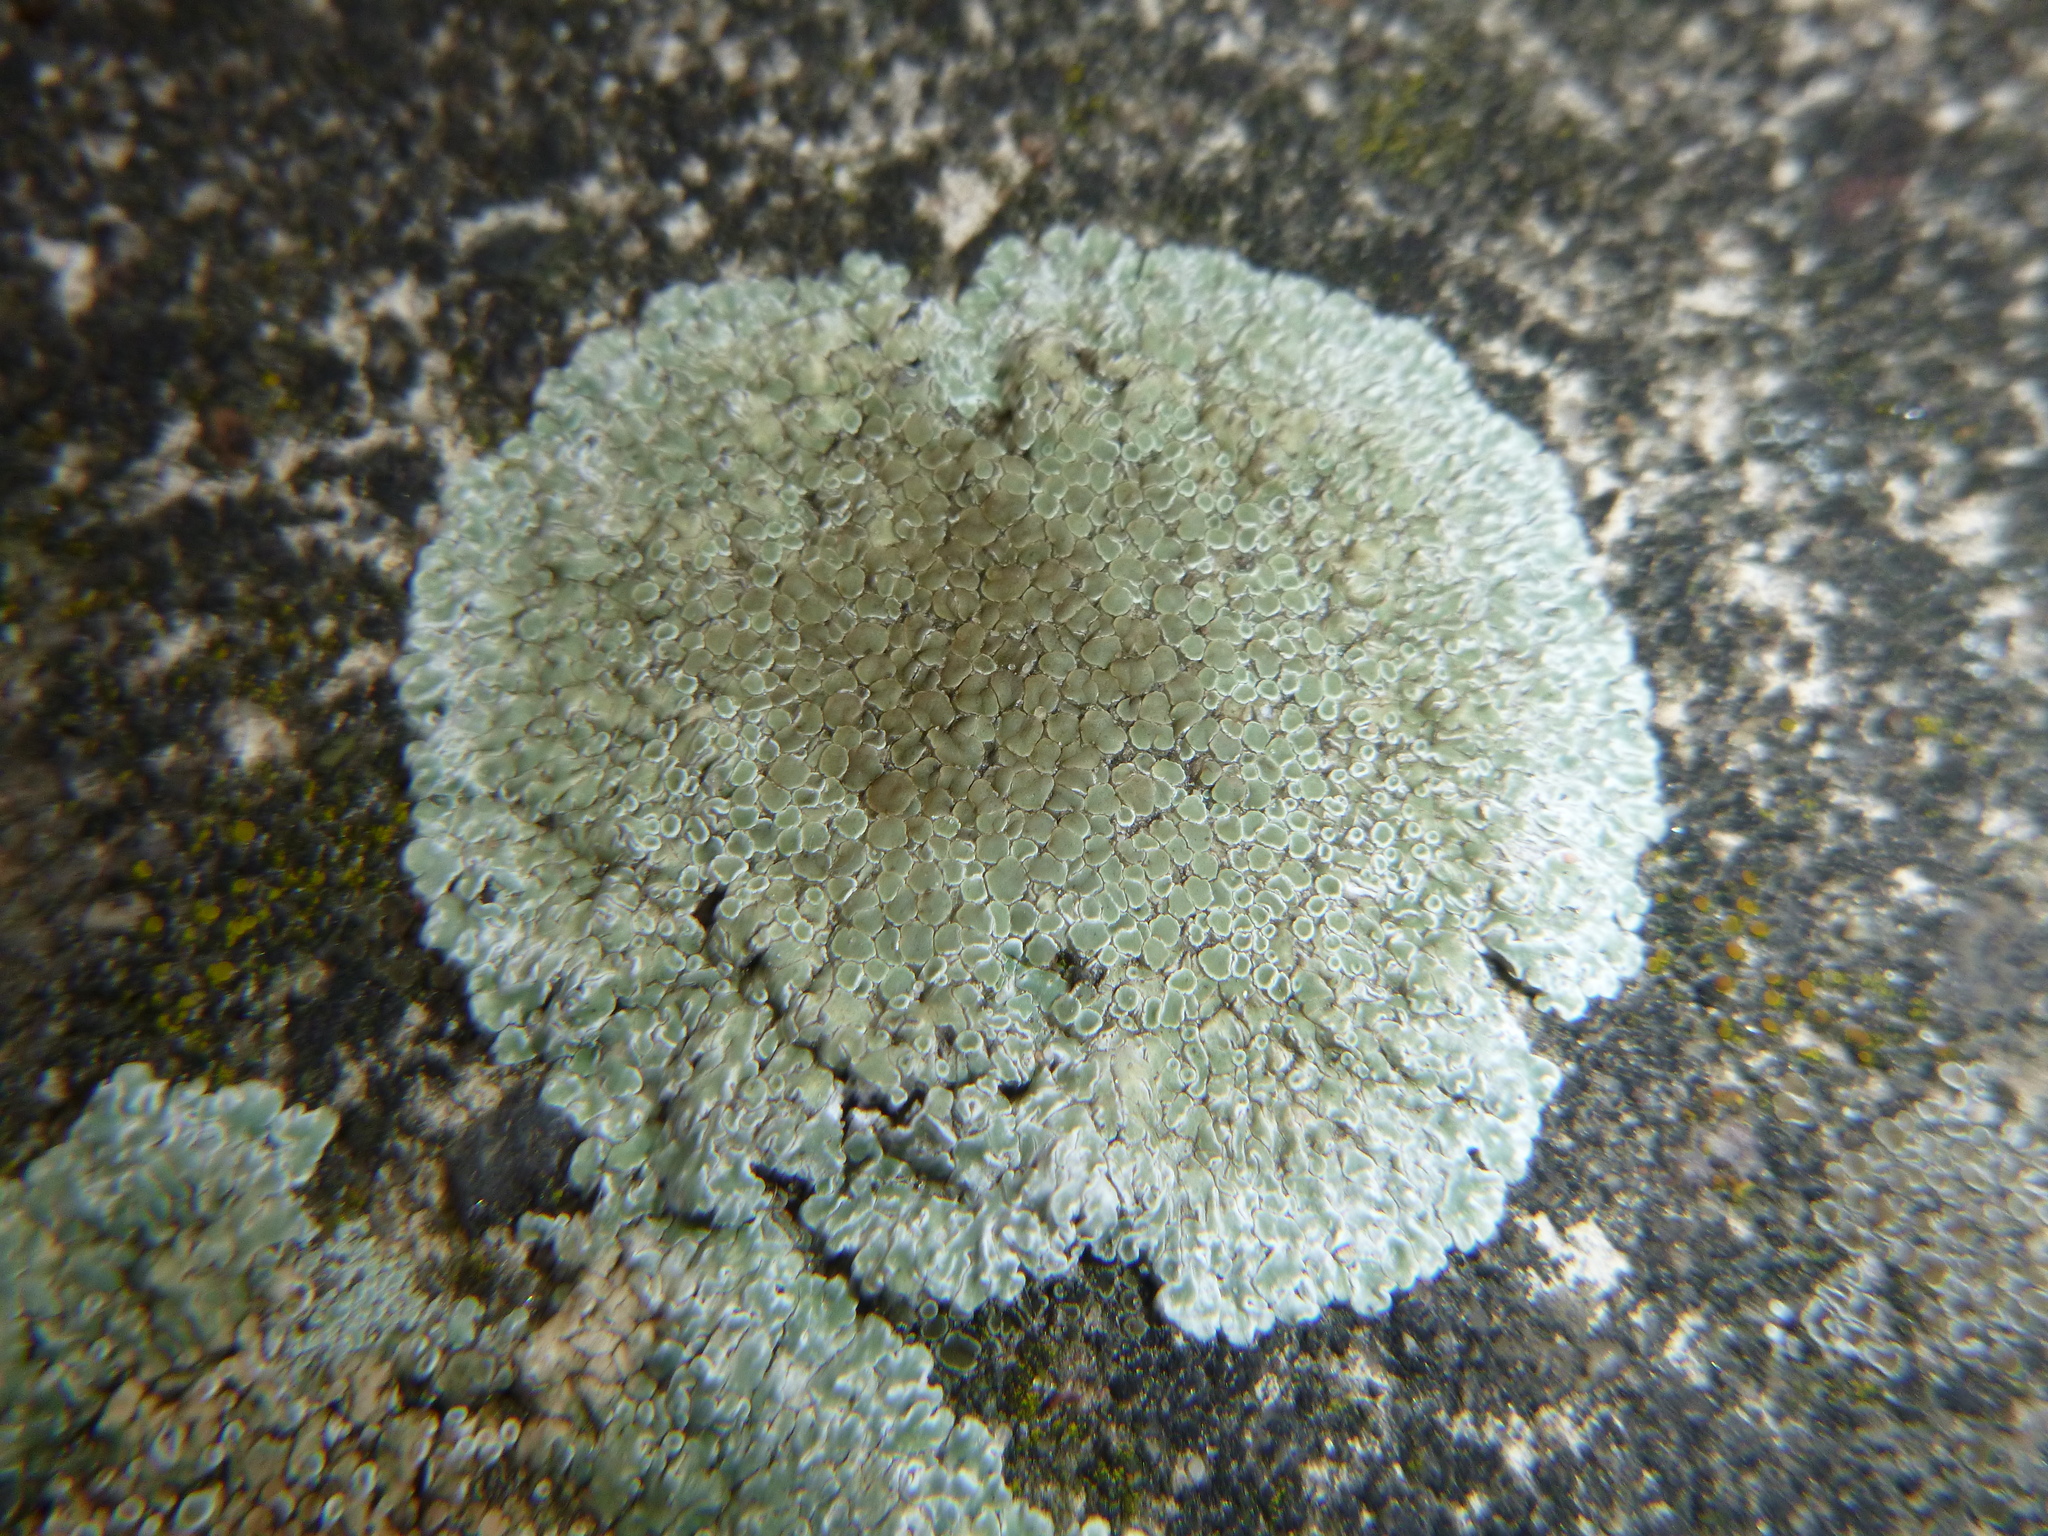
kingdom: Fungi
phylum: Ascomycota
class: Lecanoromycetes
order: Lecanorales
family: Lecanoraceae
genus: Protoparmeliopsis
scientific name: Protoparmeliopsis muralis
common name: Stonewall rim lichen
